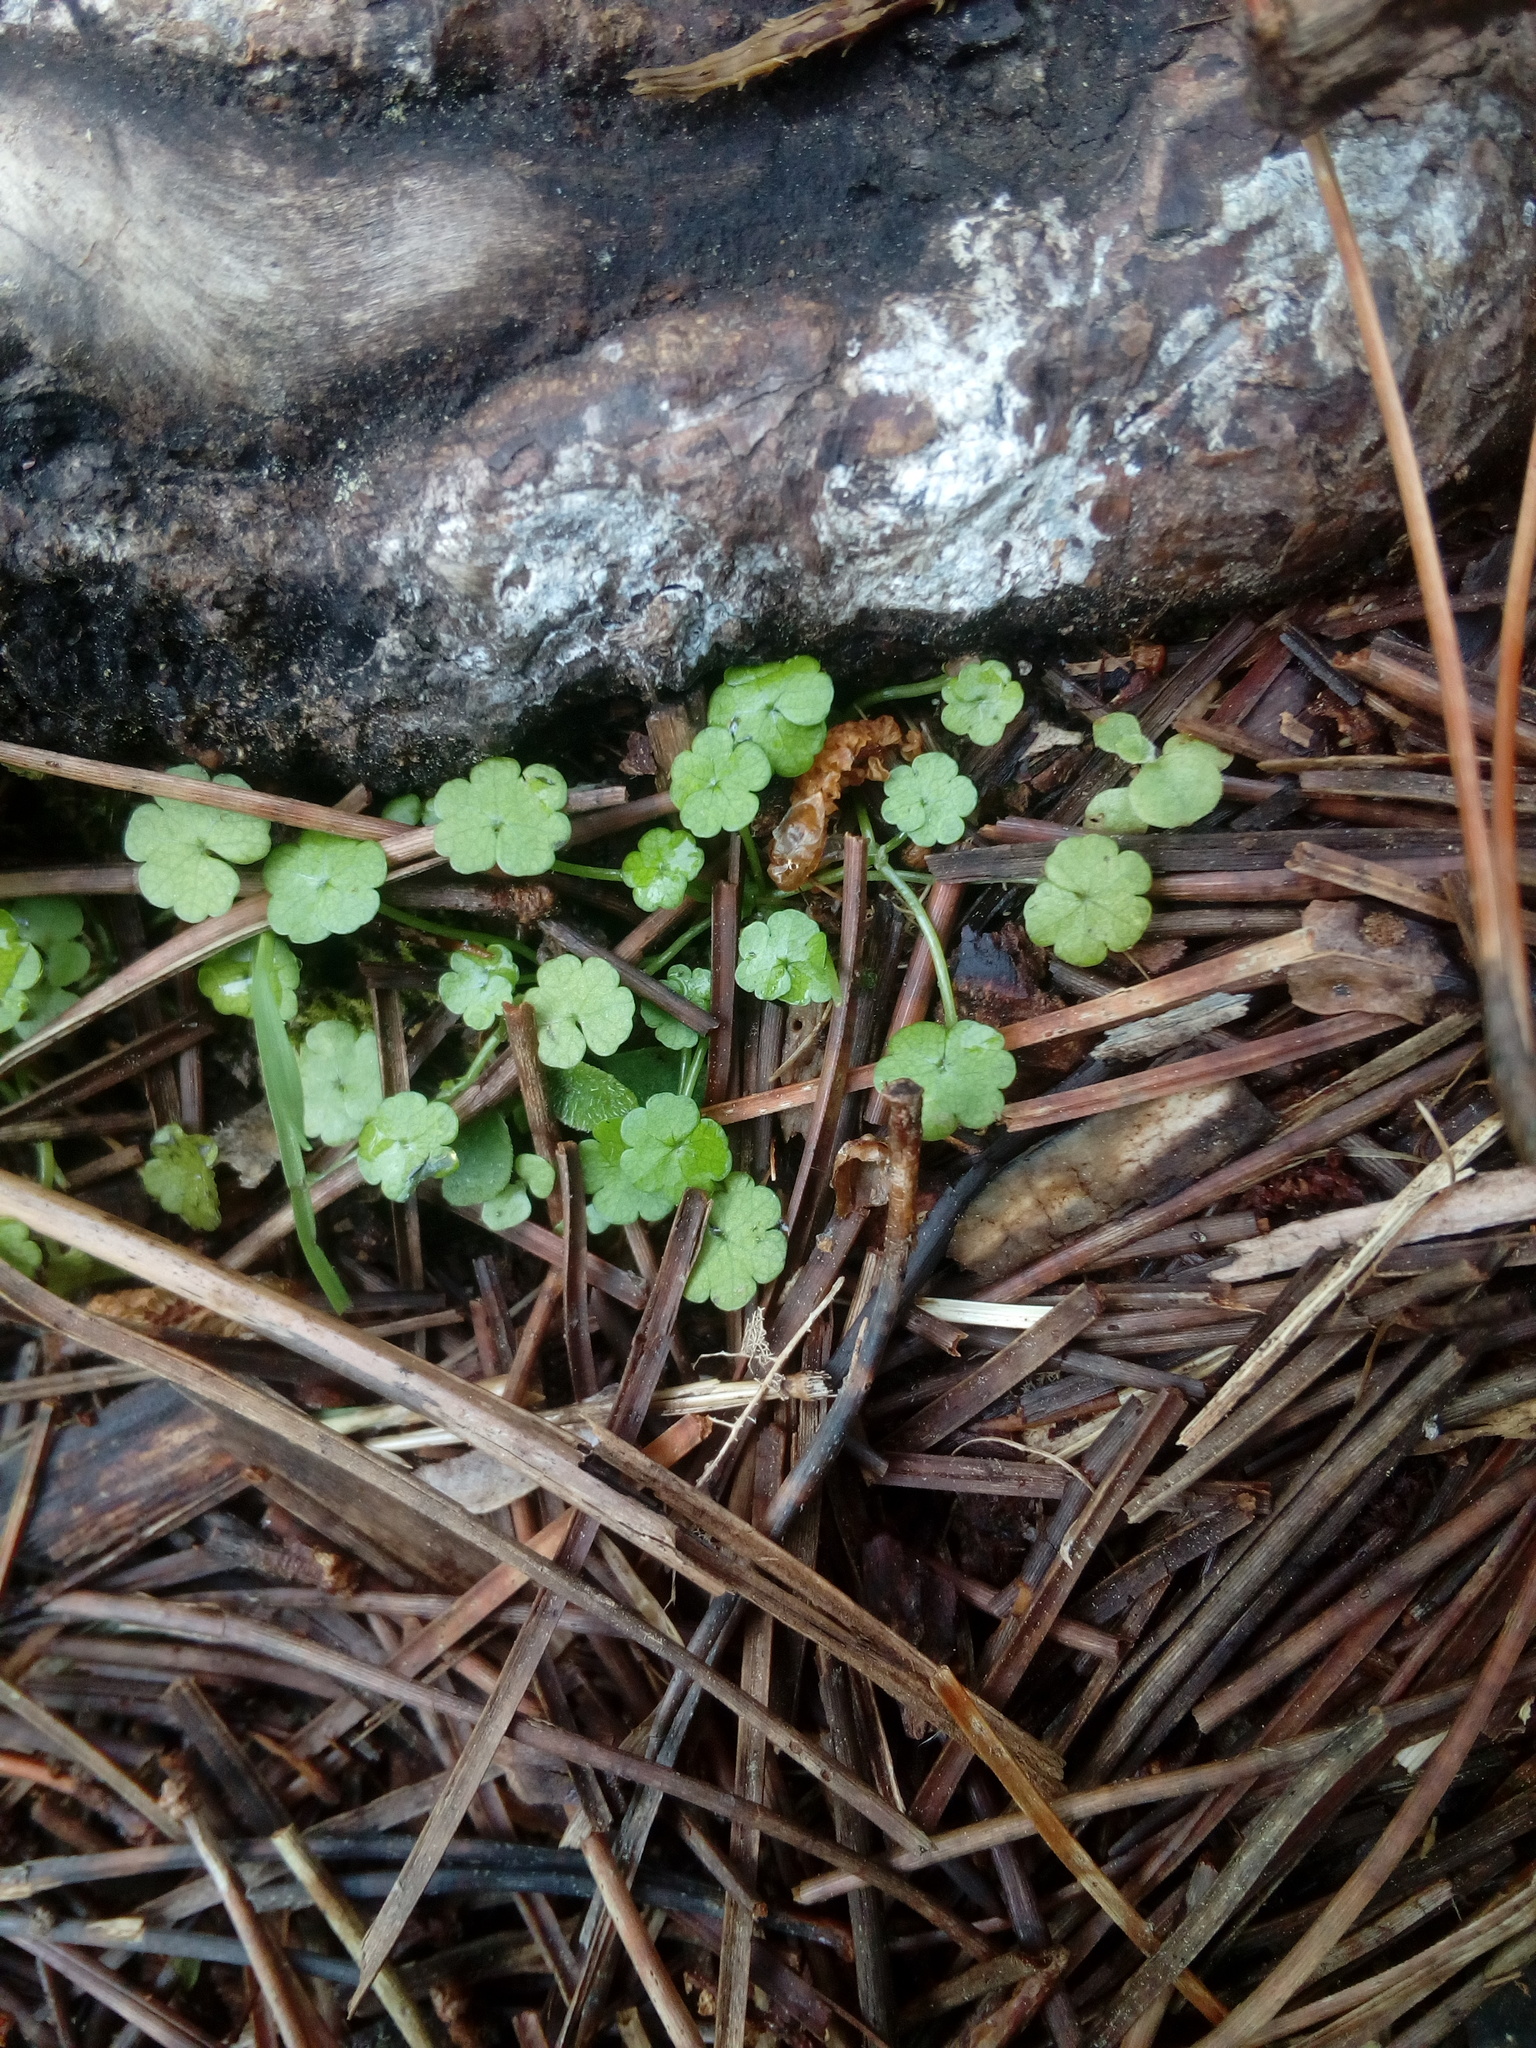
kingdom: Plantae
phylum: Tracheophyta
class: Magnoliopsida
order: Apiales
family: Araliaceae
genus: Hydrocotyle
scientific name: Hydrocotyle heteromeria
